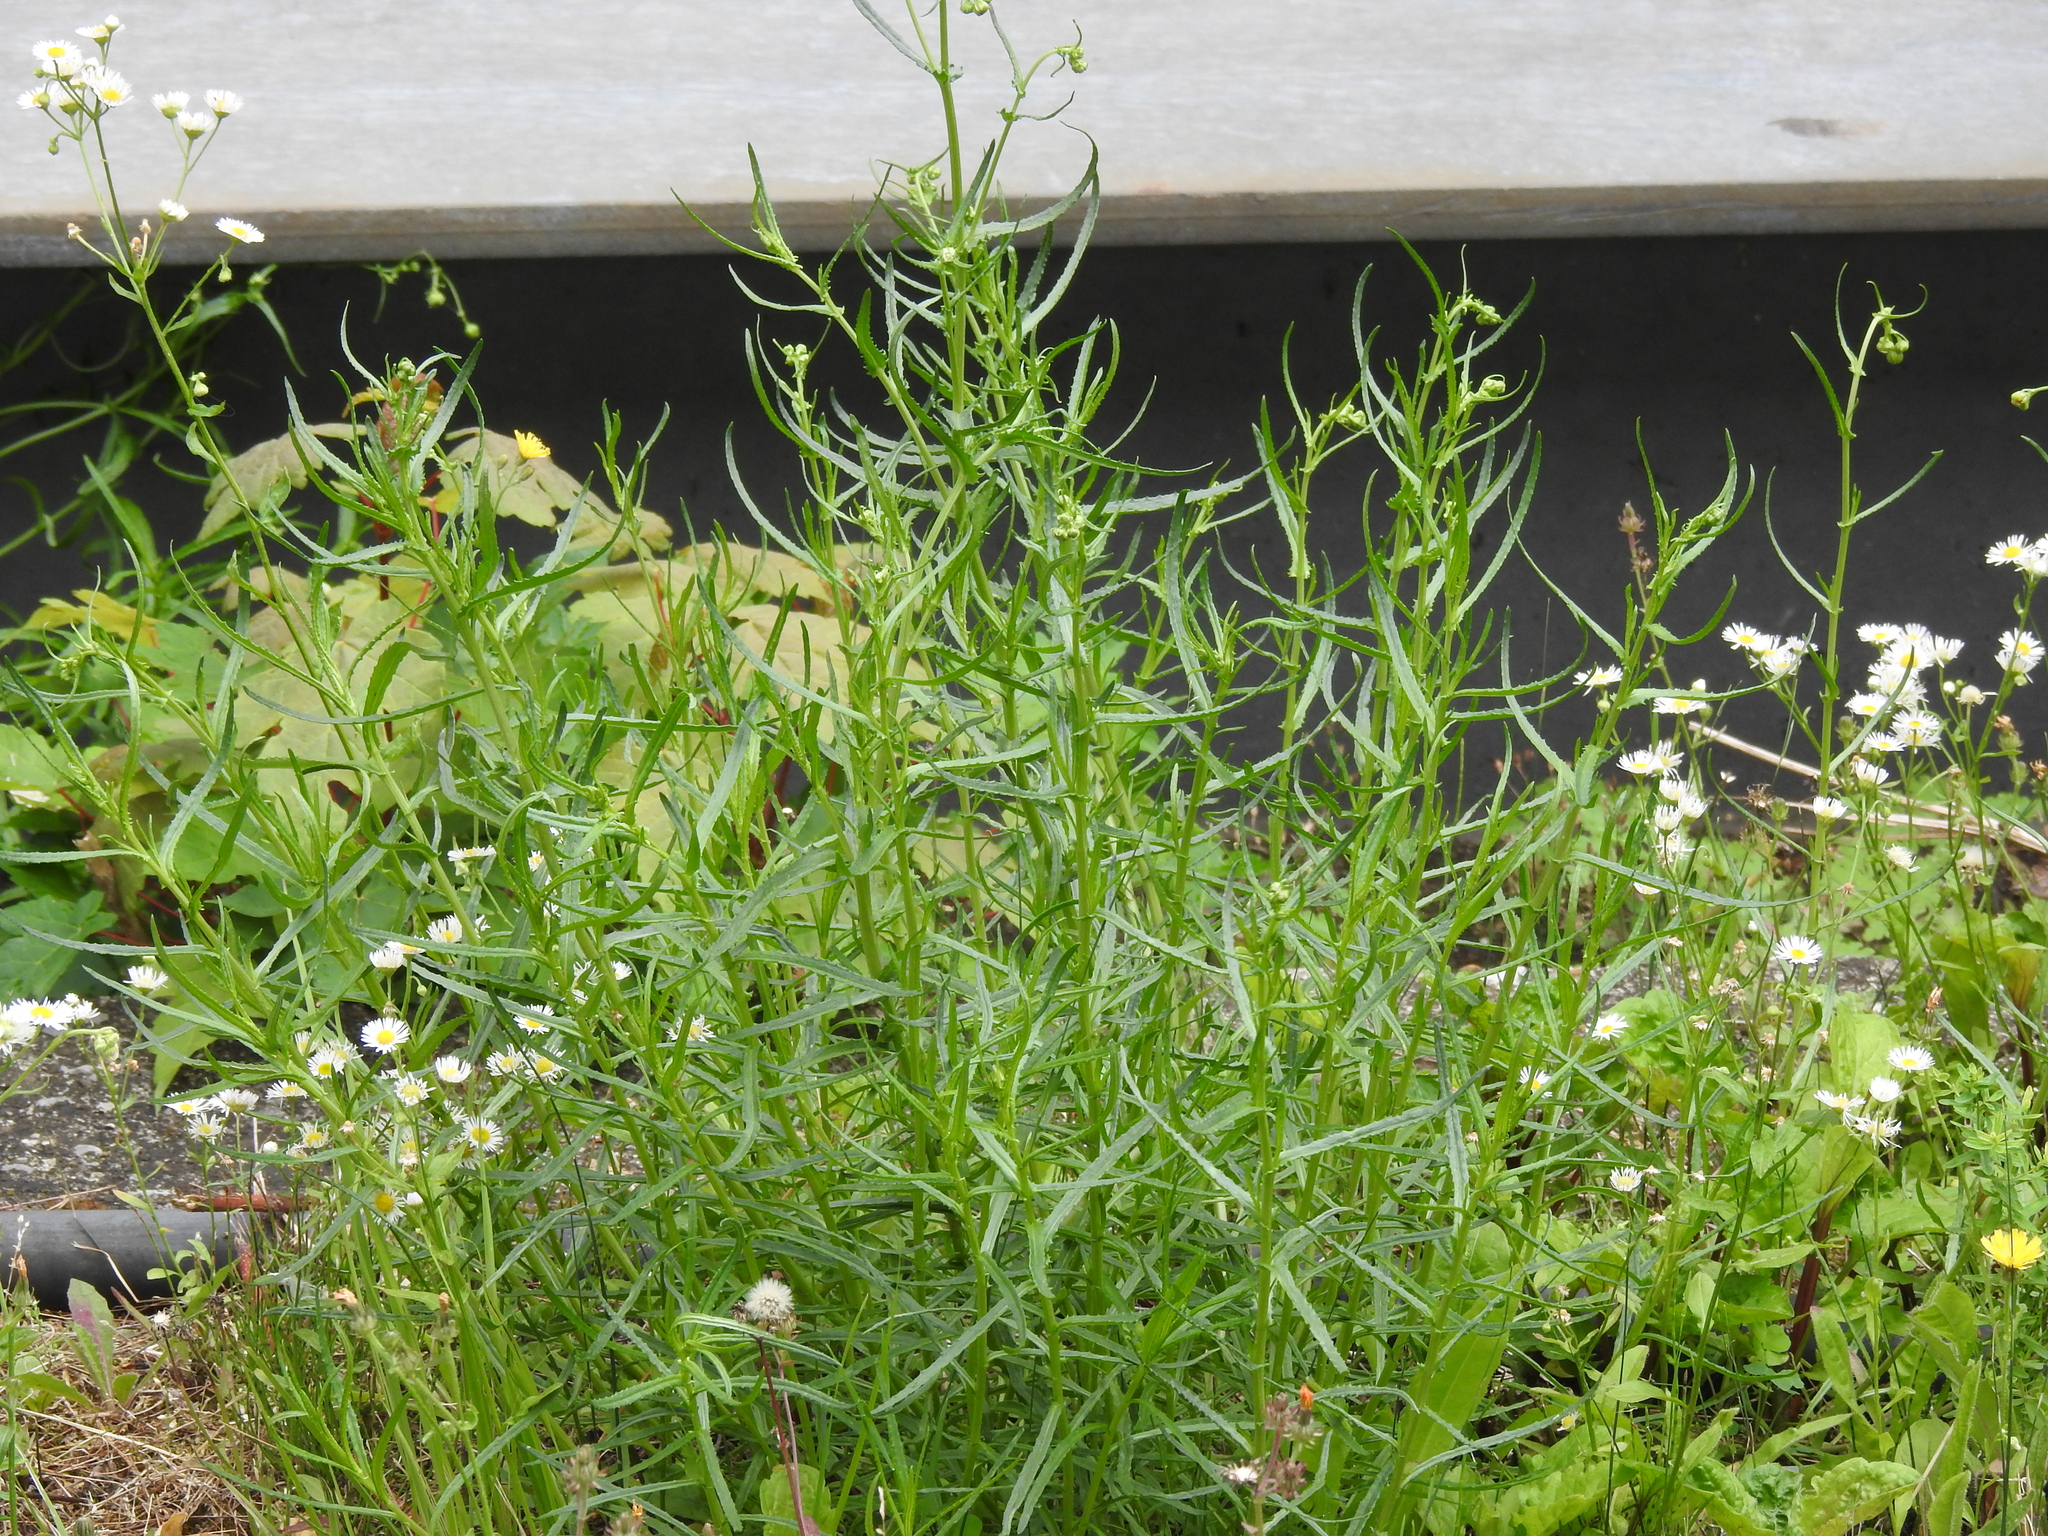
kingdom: Plantae
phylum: Tracheophyta
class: Magnoliopsida
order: Asterales
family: Asteraceae
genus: Senecio
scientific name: Senecio inaequidens
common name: Narrow-leaved ragwort
